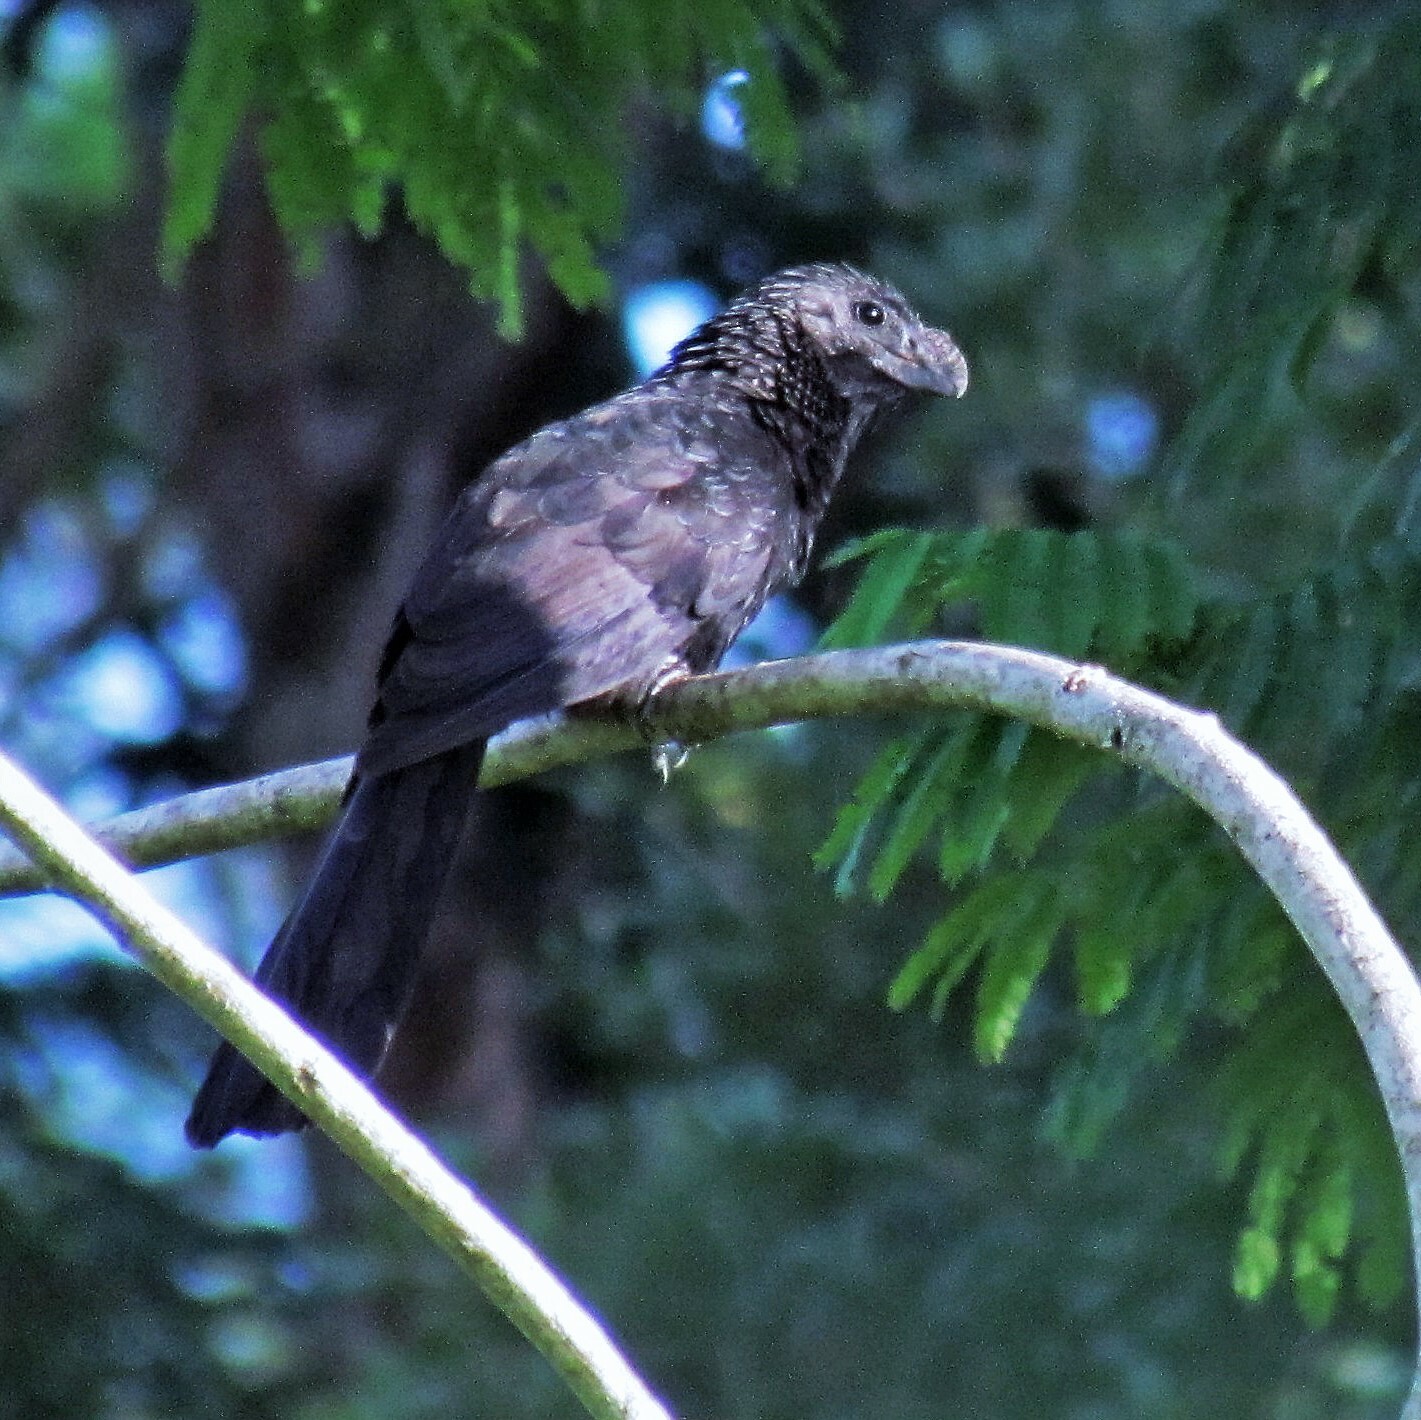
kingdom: Animalia
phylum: Chordata
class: Aves
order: Cuculiformes
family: Cuculidae
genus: Crotophaga
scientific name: Crotophaga ani
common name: Smooth-billed ani
